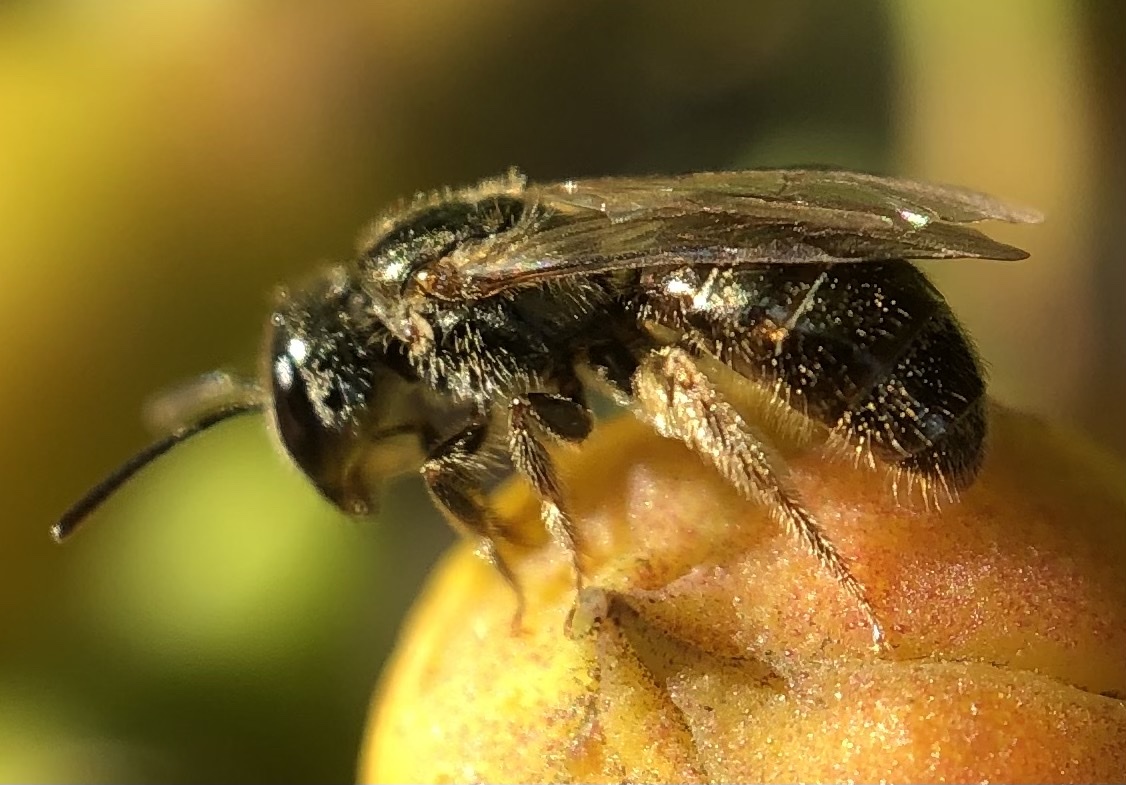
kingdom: Animalia
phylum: Arthropoda
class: Insecta
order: Hymenoptera
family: Halictidae
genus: Dialictus
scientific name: Dialictus
